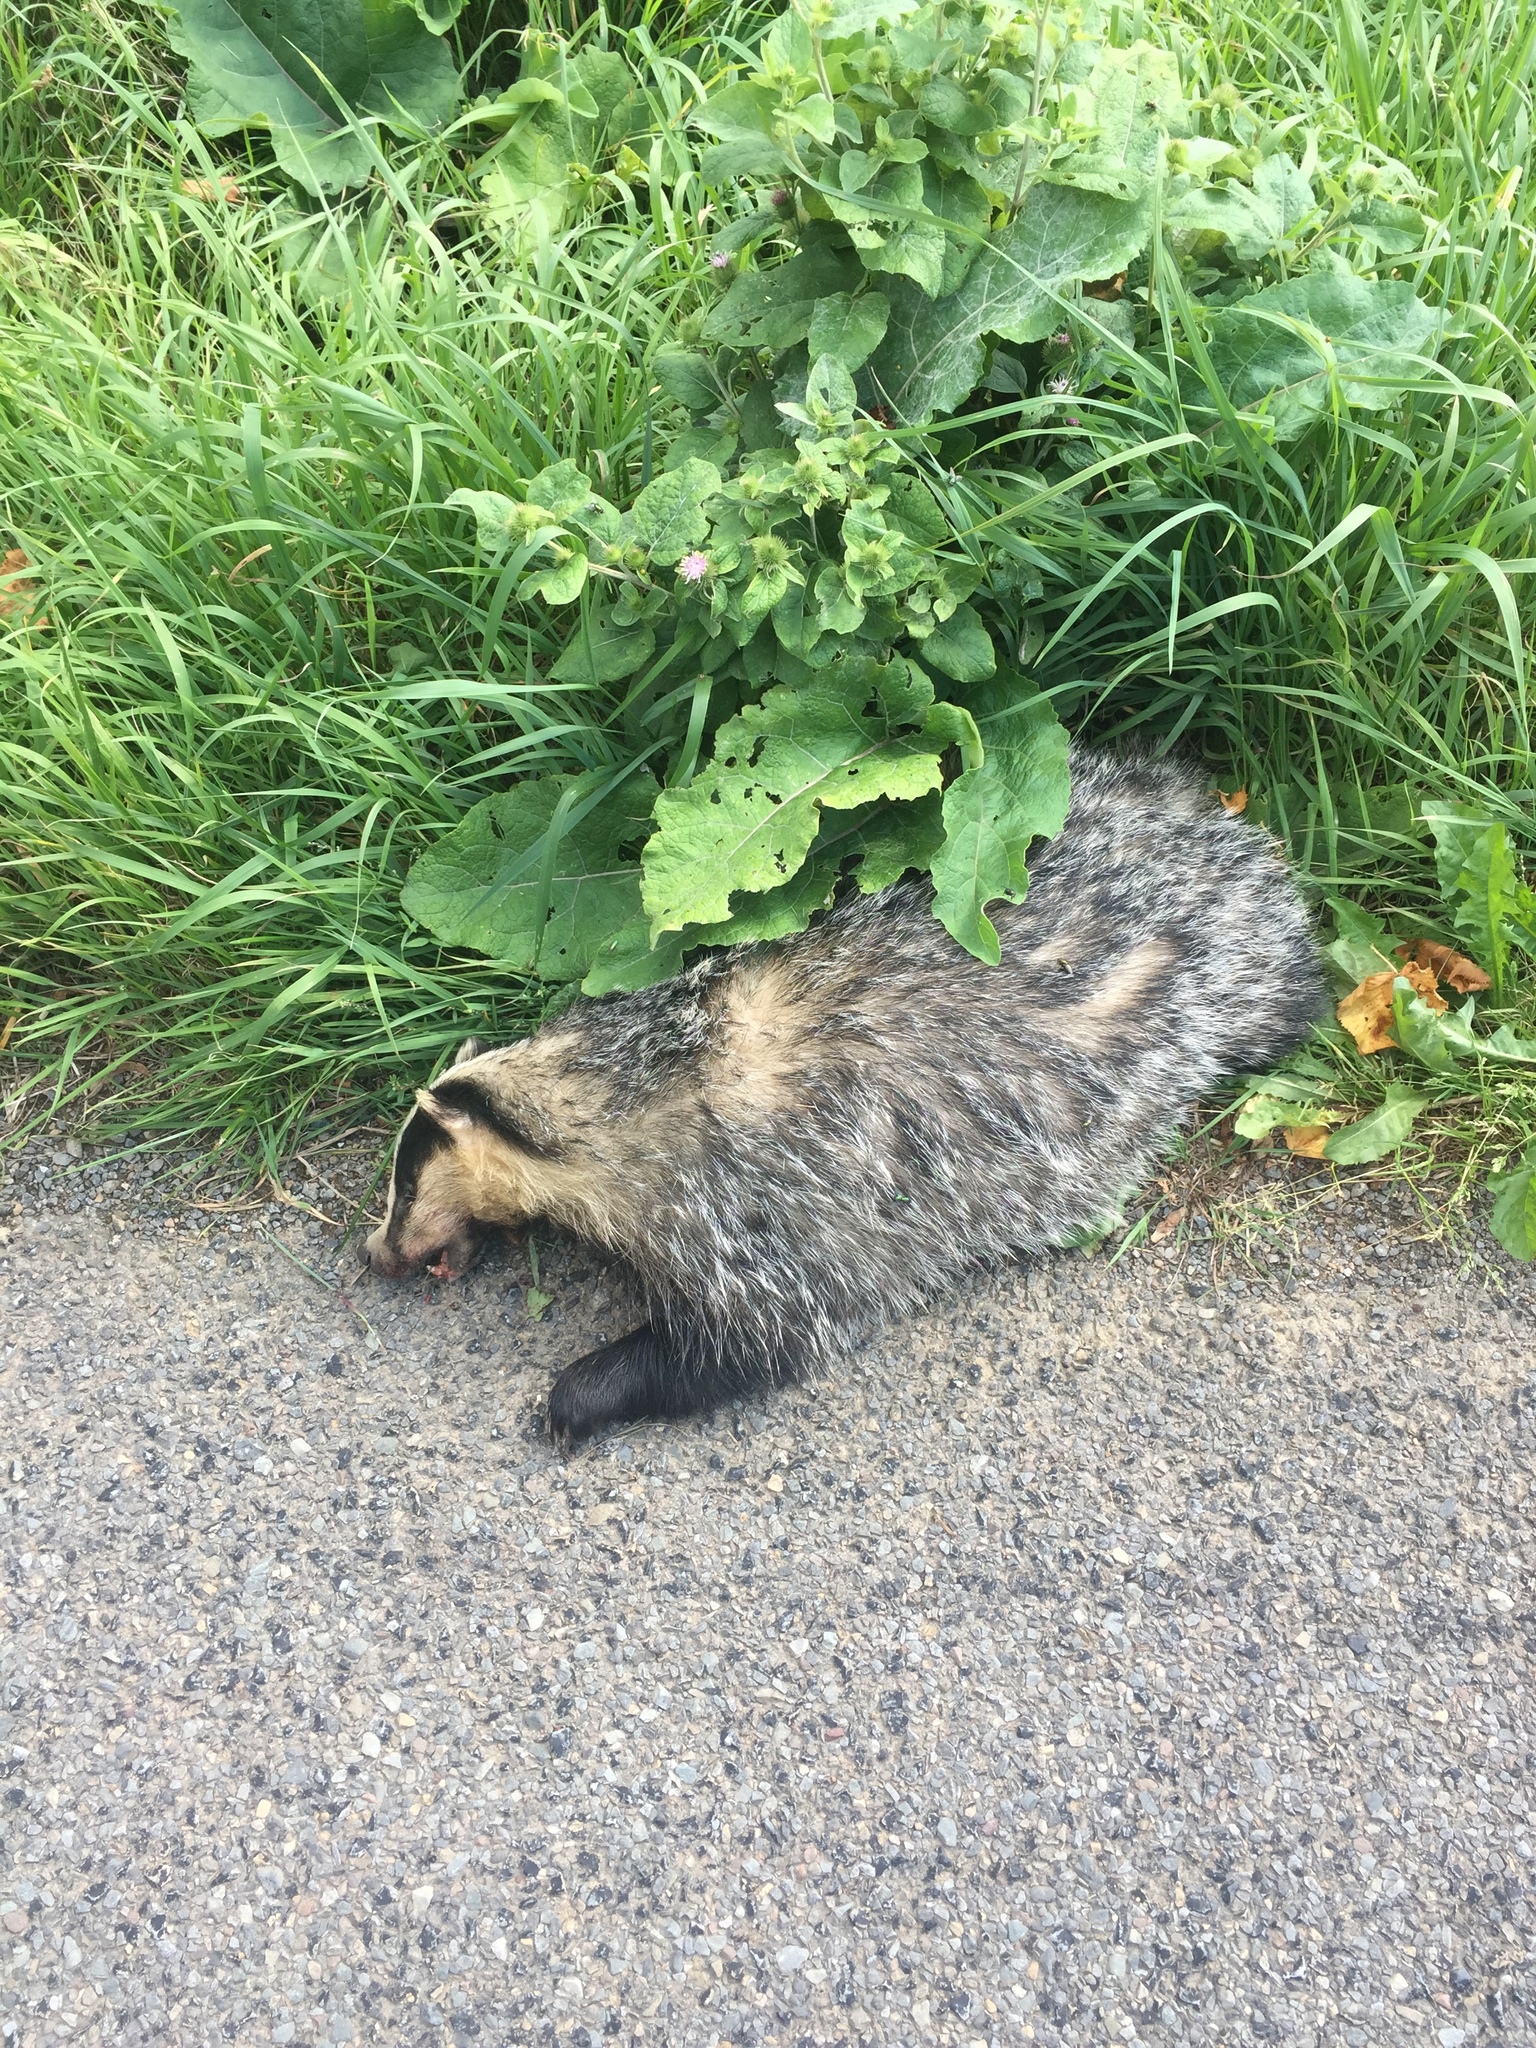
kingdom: Animalia
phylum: Chordata
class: Mammalia
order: Carnivora
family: Mustelidae
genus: Meles
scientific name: Meles meles
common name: Eurasian badger
